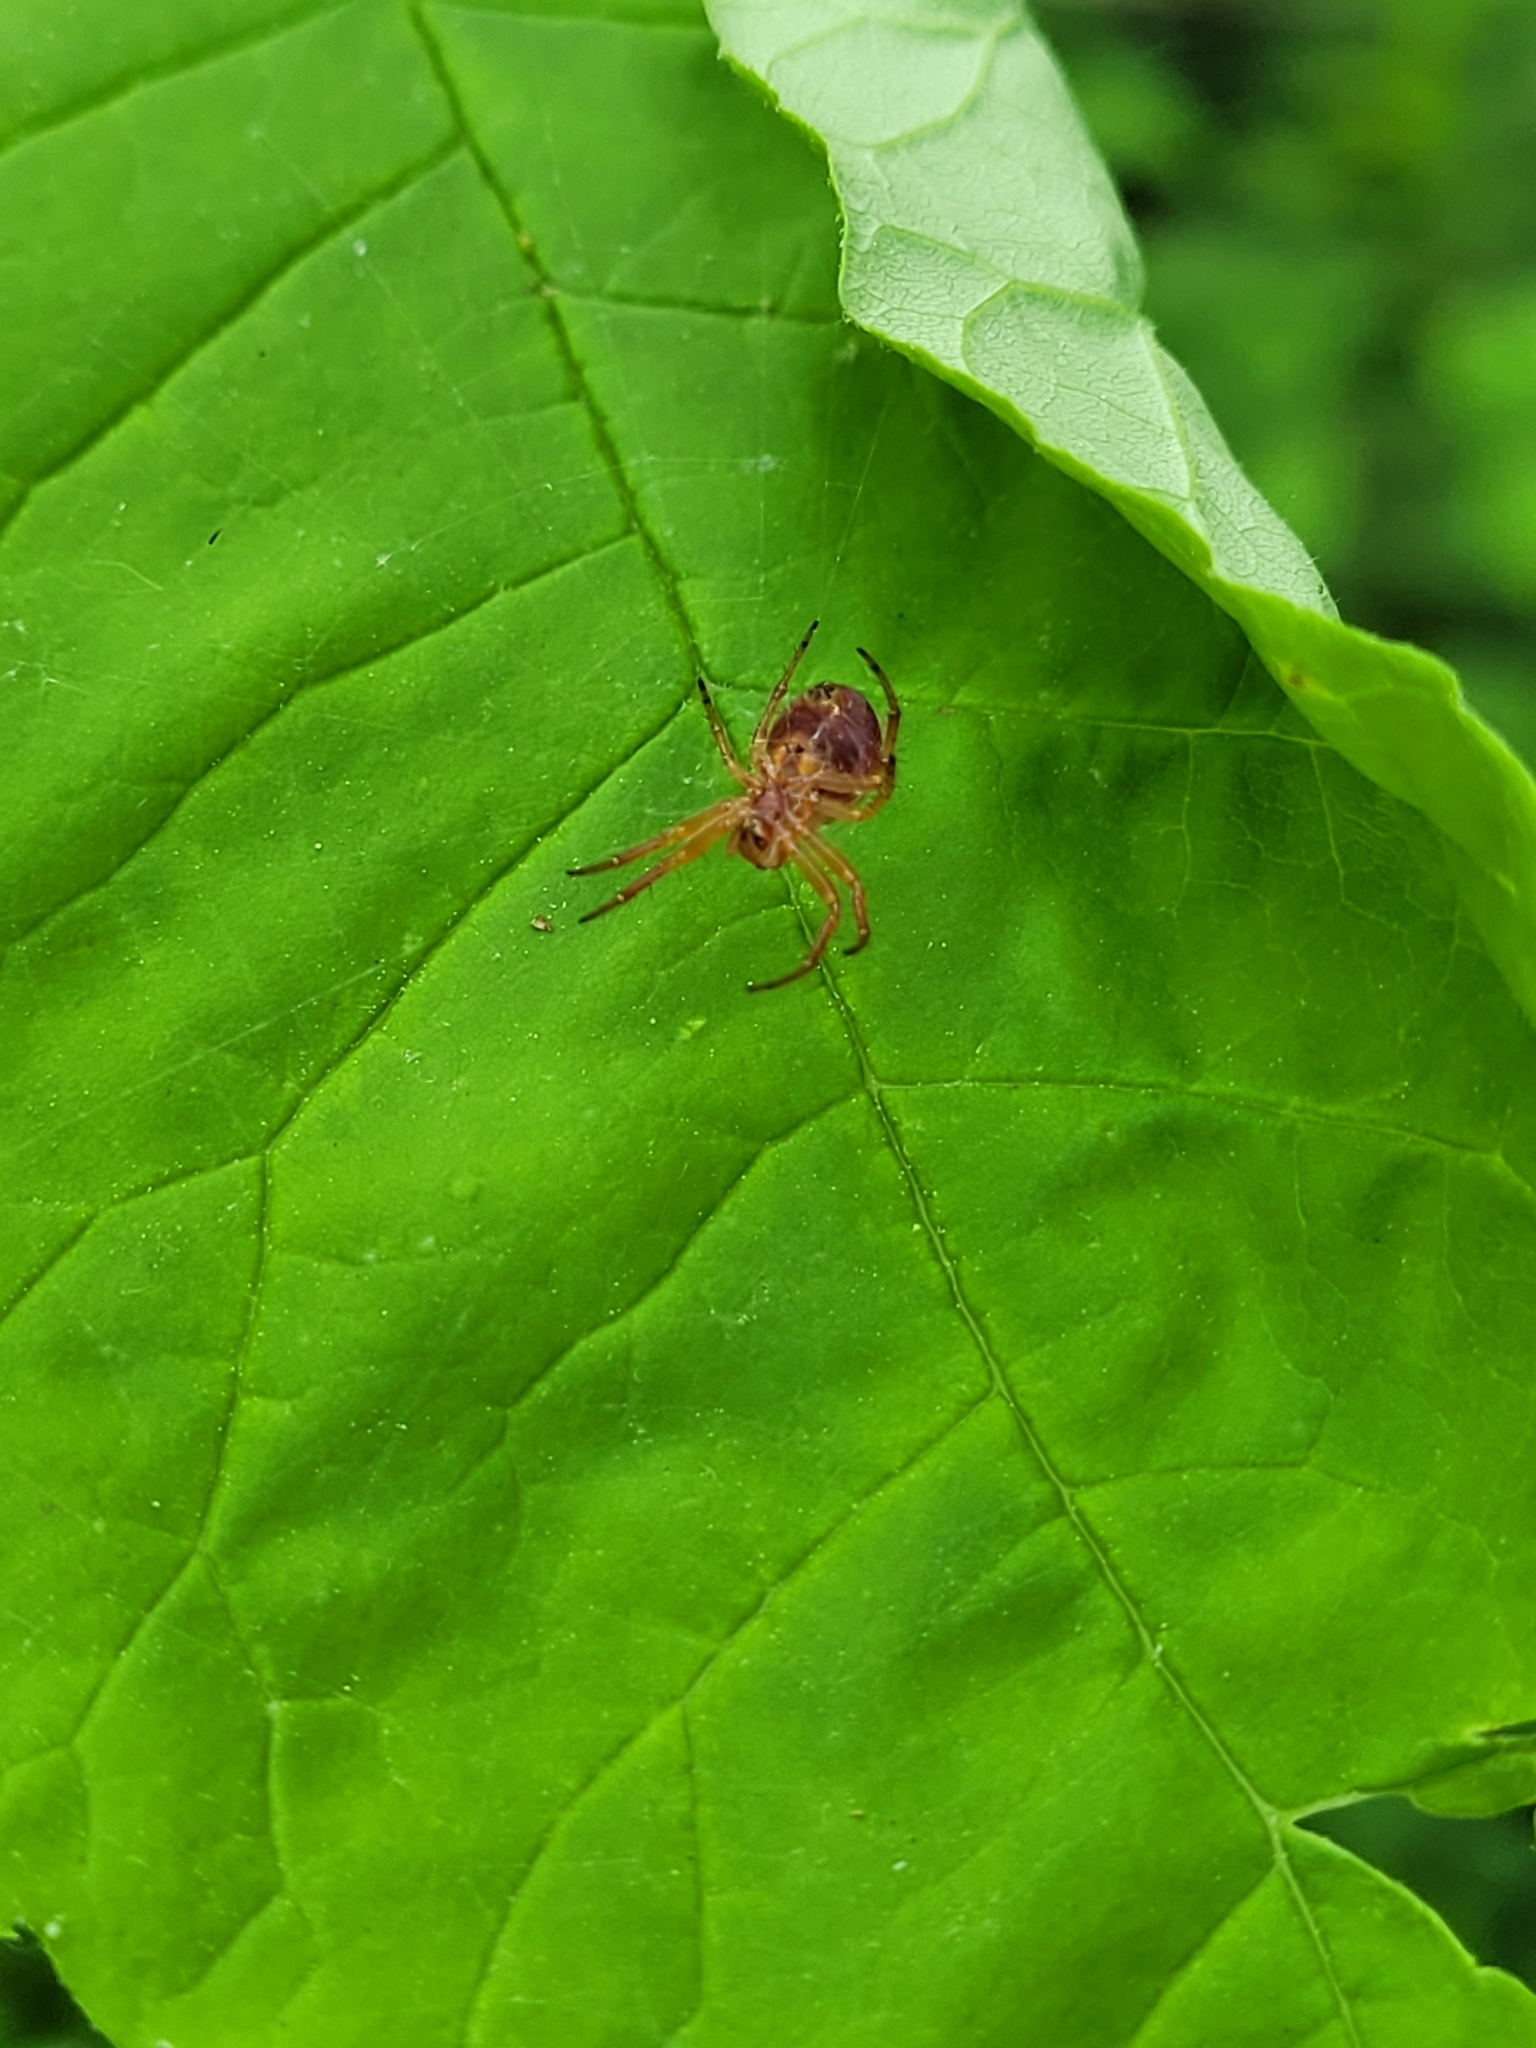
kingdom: Animalia
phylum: Arthropoda
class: Arachnida
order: Araneae
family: Araneidae
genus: Araniella
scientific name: Araniella displicata
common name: Sixspotted orb weaver
